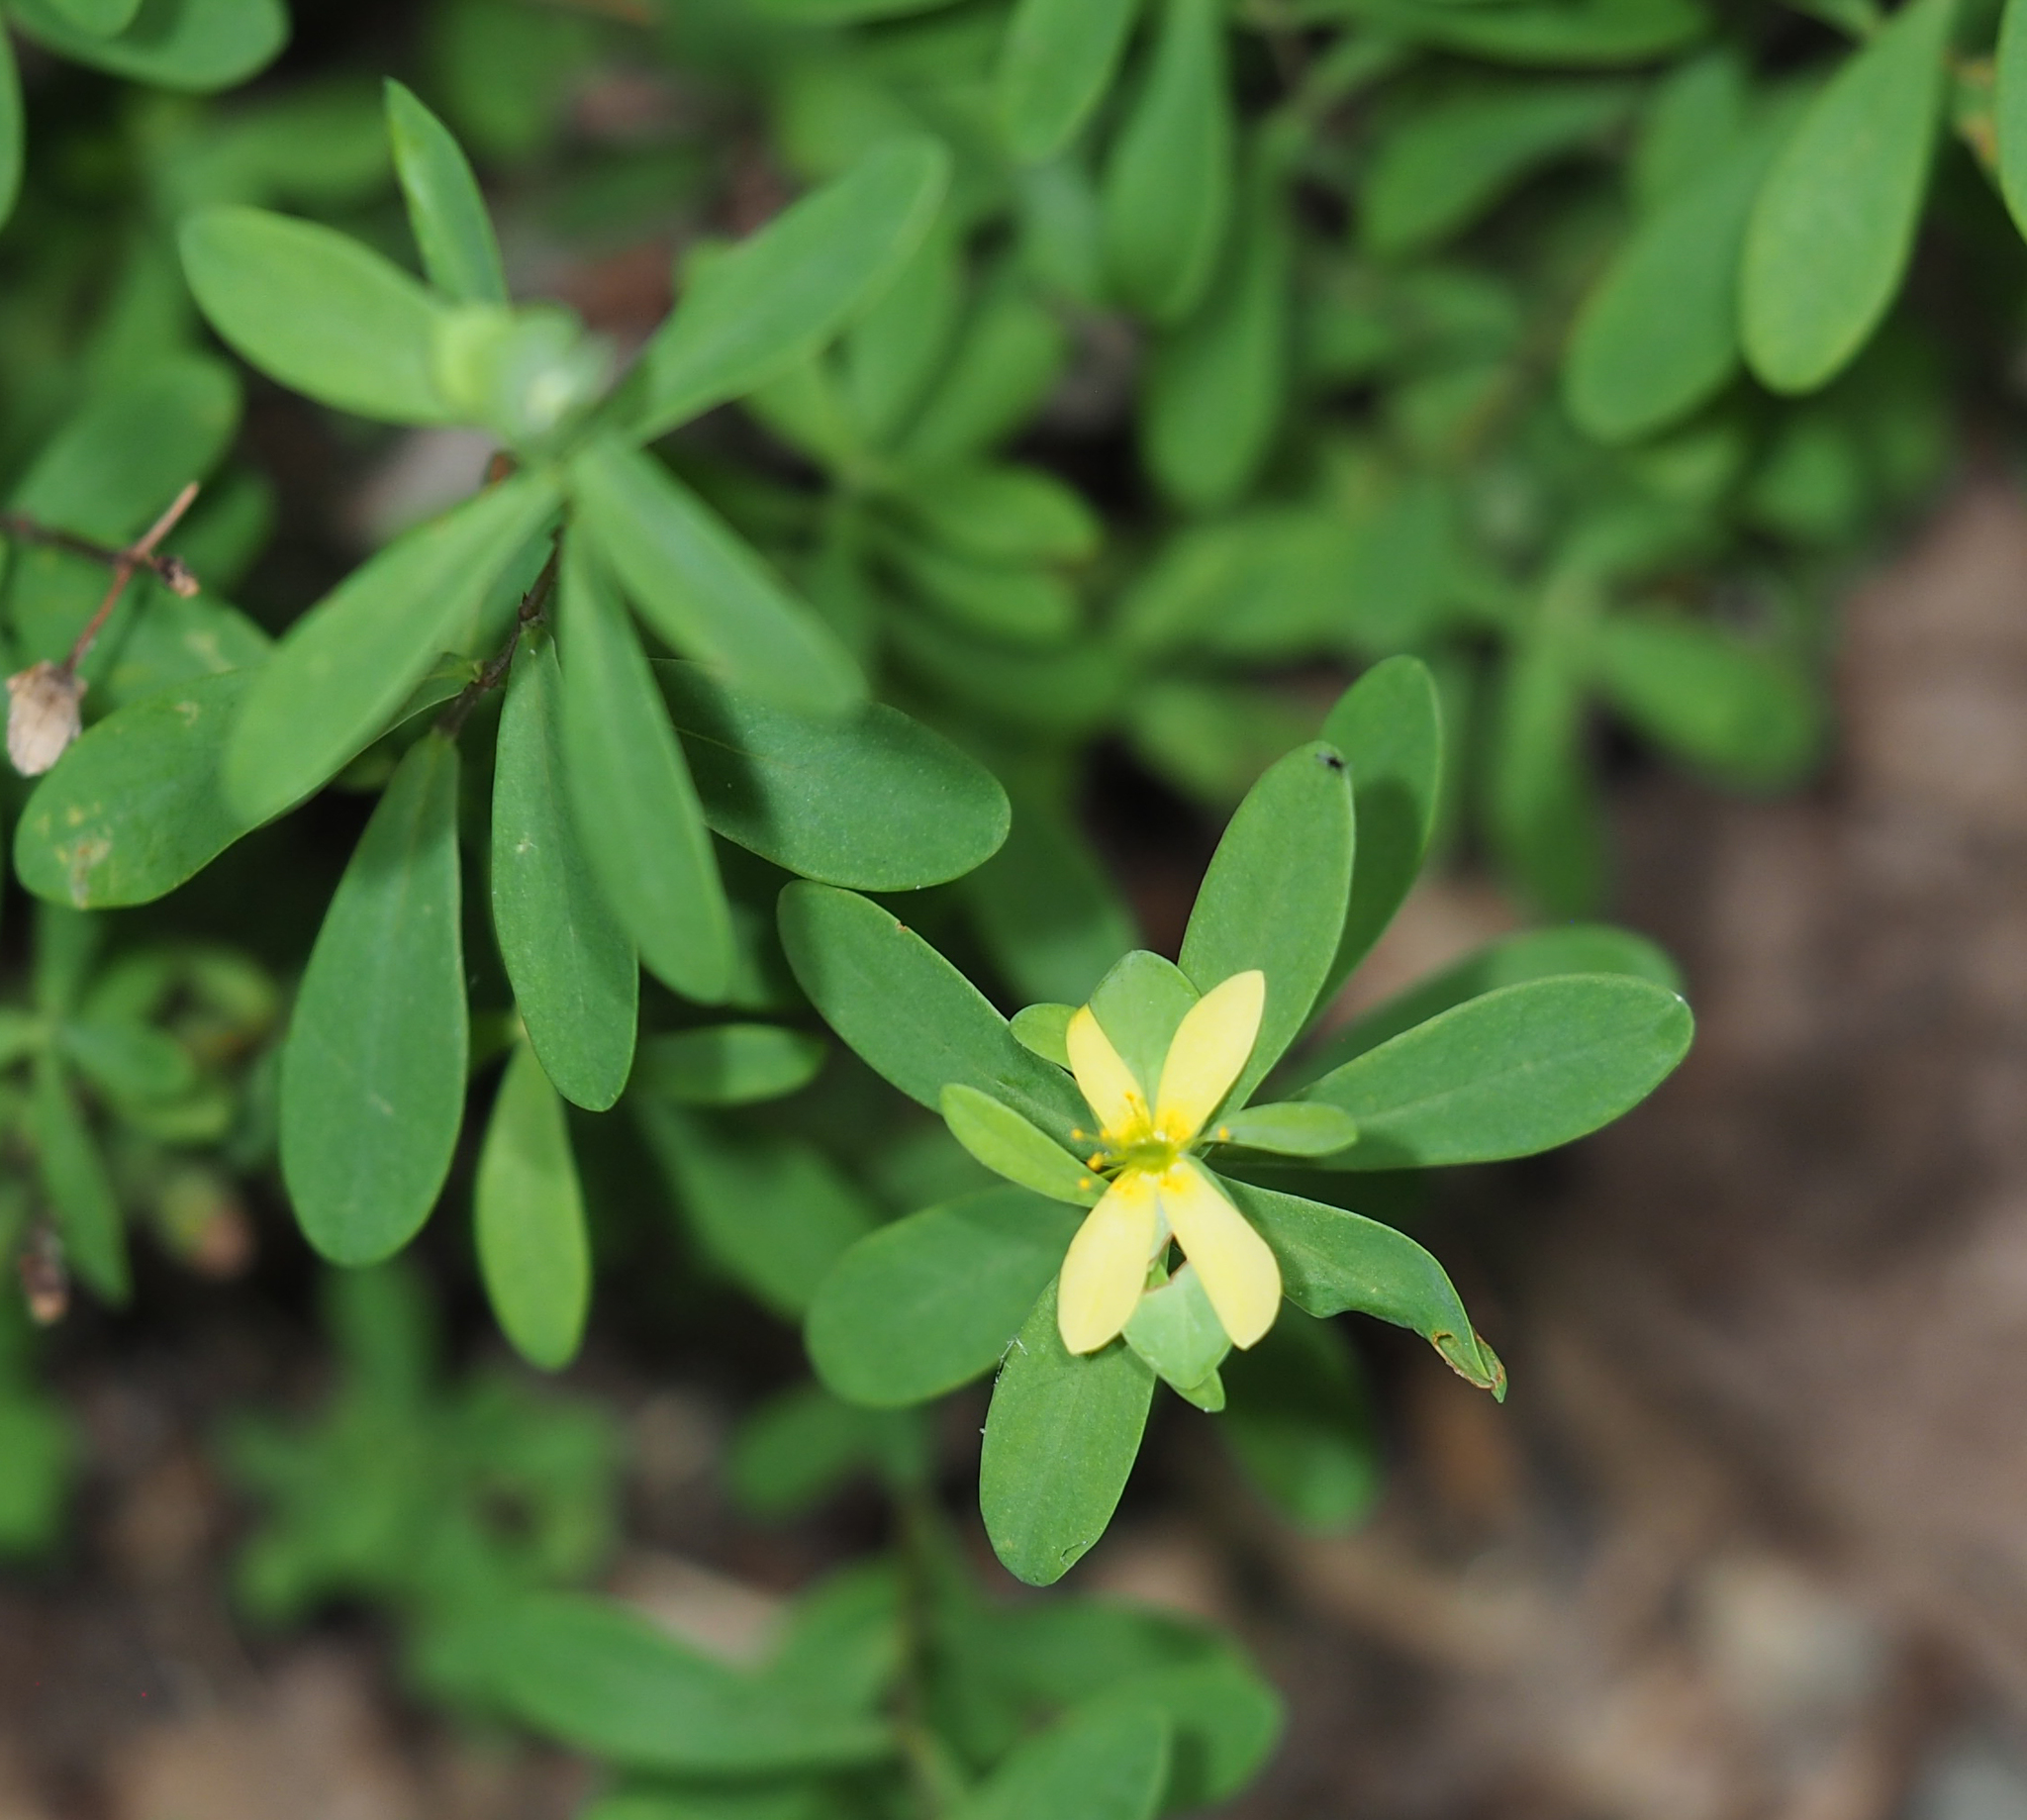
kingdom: Plantae
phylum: Tracheophyta
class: Magnoliopsida
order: Malpighiales
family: Hypericaceae
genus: Hypericum
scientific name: Hypericum hypericoides
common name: St. andrew's cross
